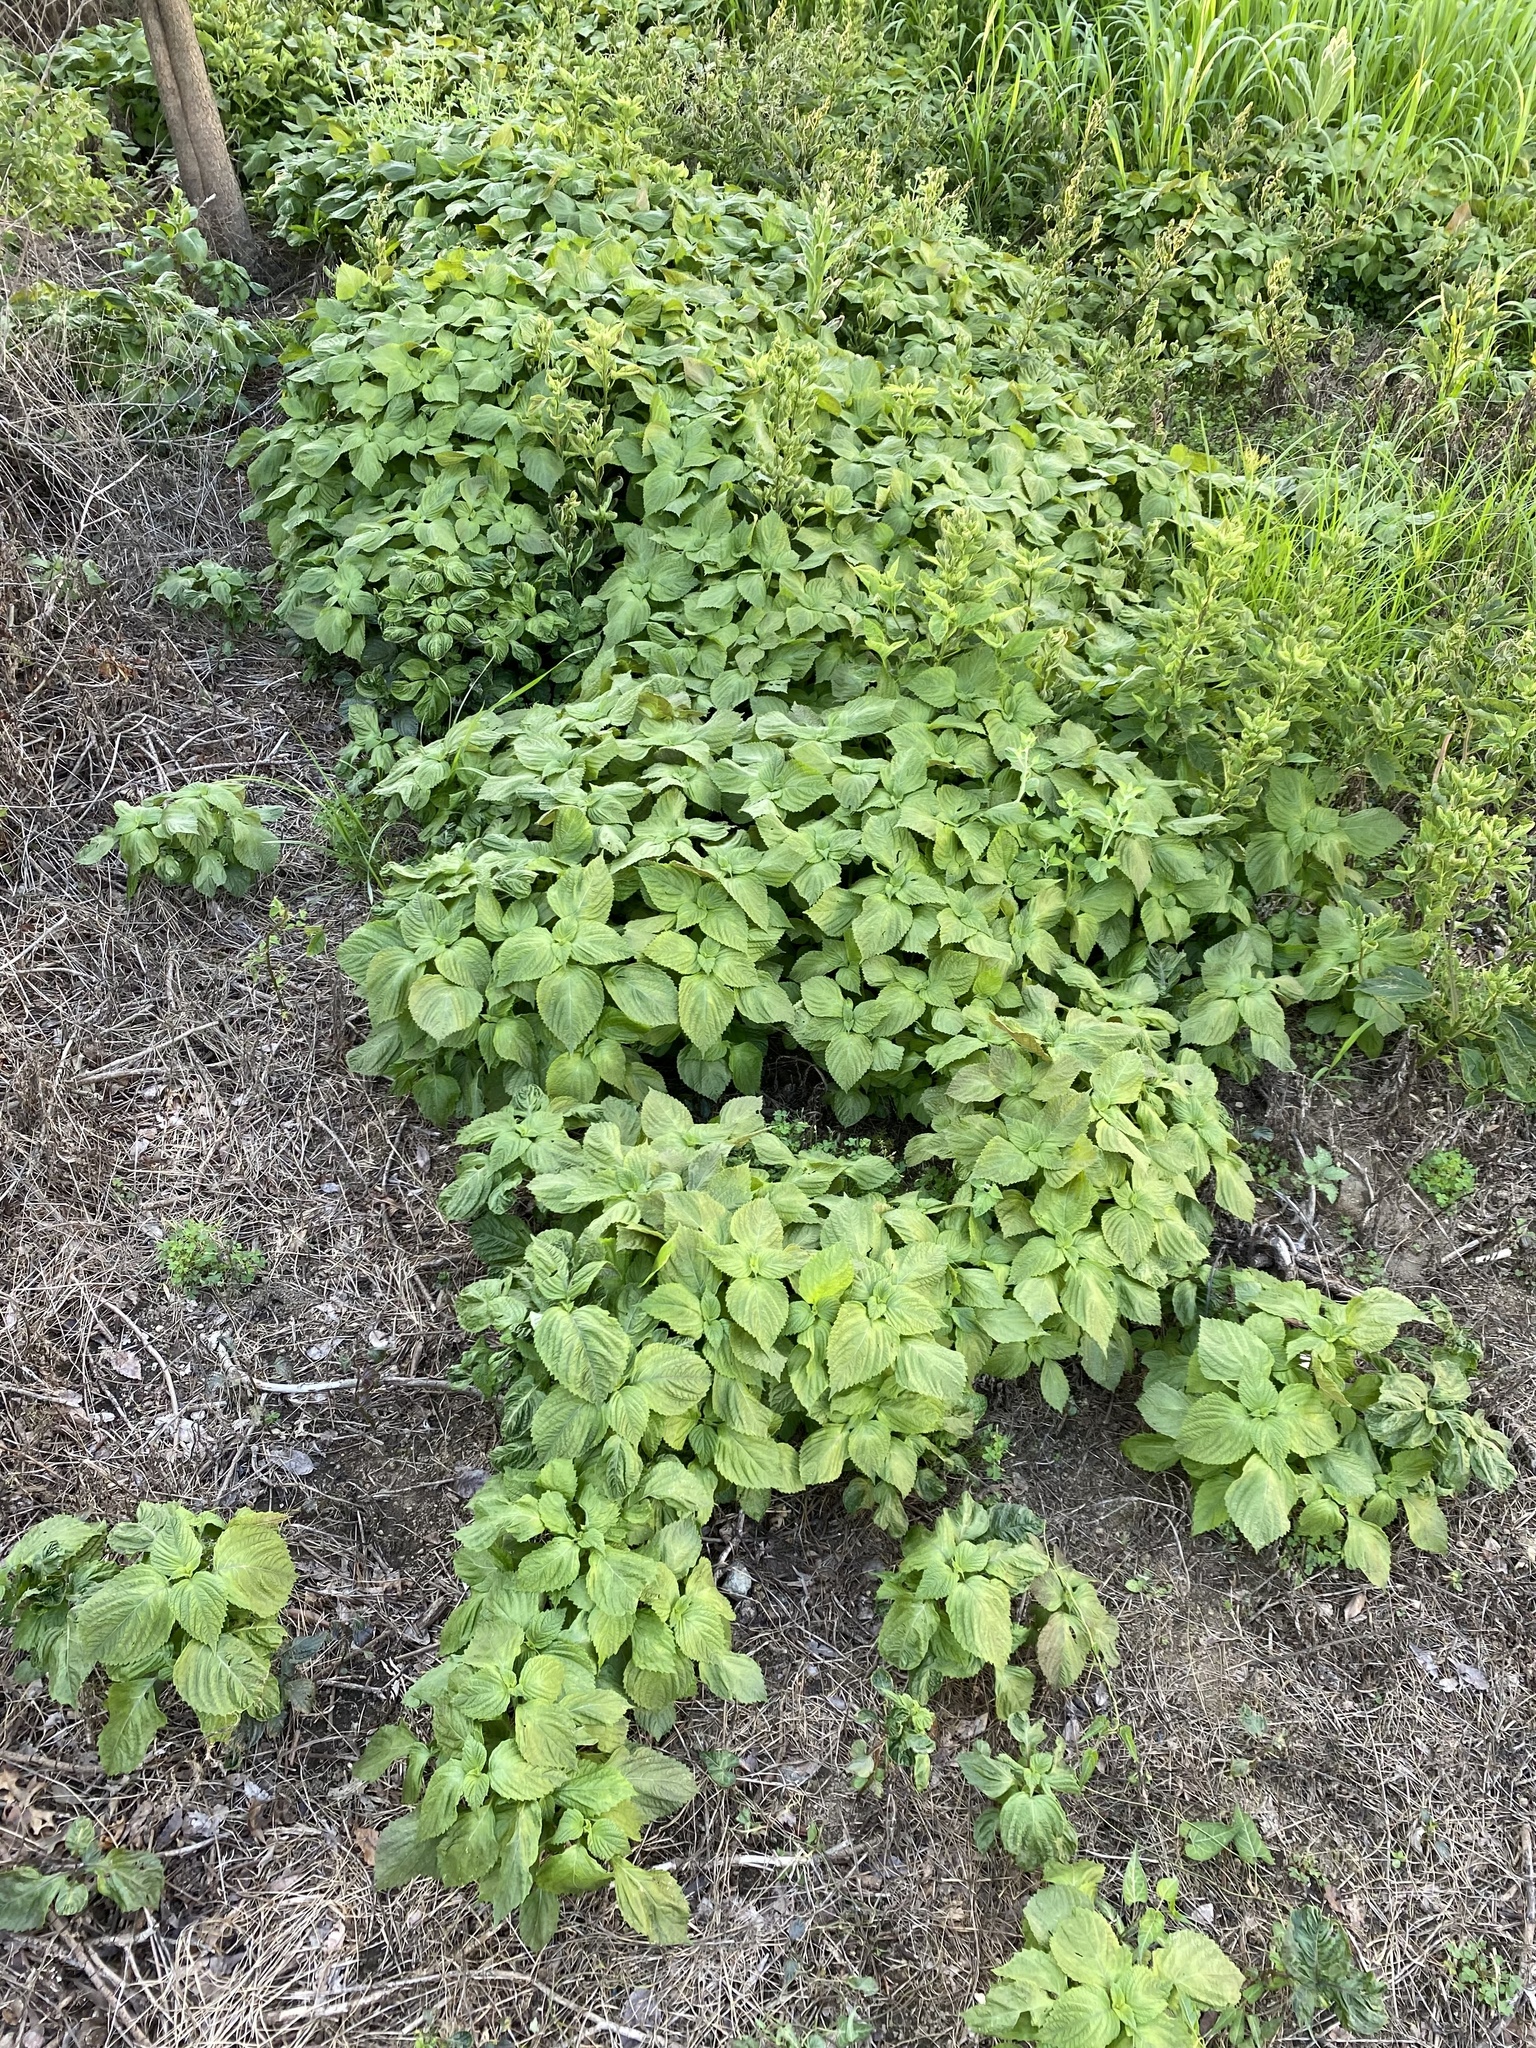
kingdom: Plantae
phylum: Tracheophyta
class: Magnoliopsida
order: Lamiales
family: Lamiaceae
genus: Perilla
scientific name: Perilla frutescens
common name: Perilla
